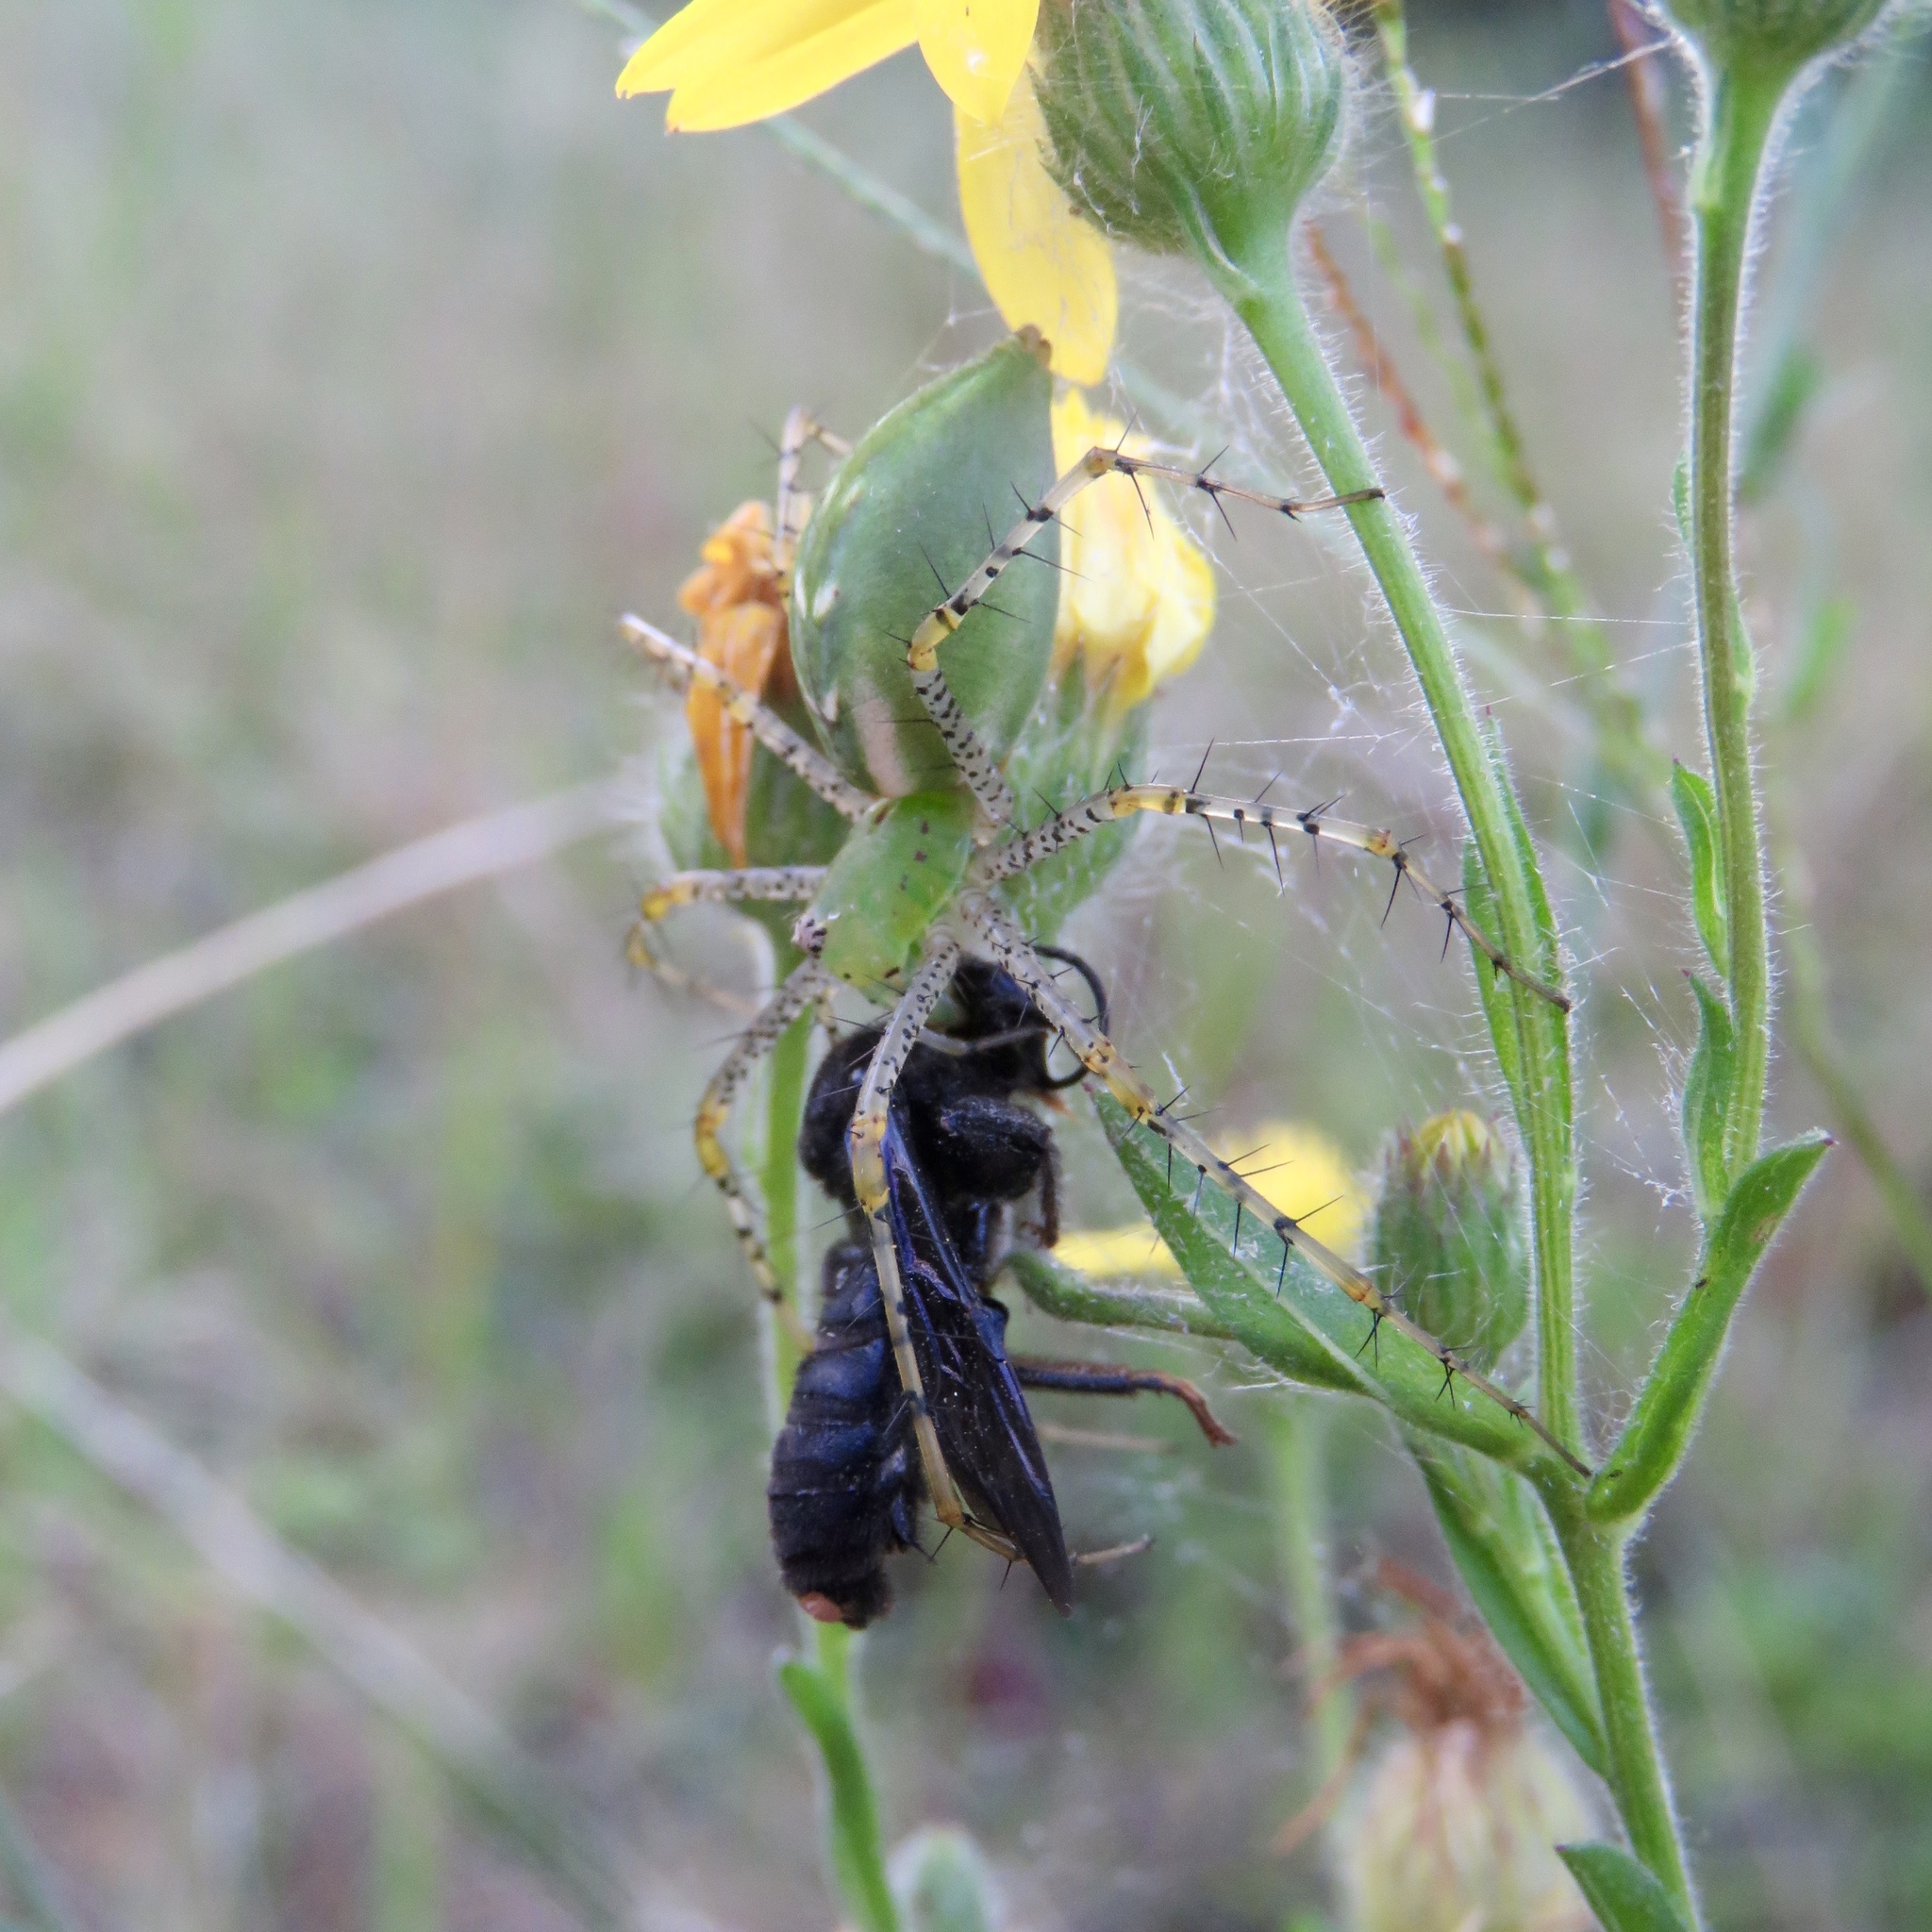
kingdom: Animalia
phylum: Arthropoda
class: Arachnida
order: Araneae
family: Oxyopidae
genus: Peucetia
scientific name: Peucetia viridans
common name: Lynx spiders
